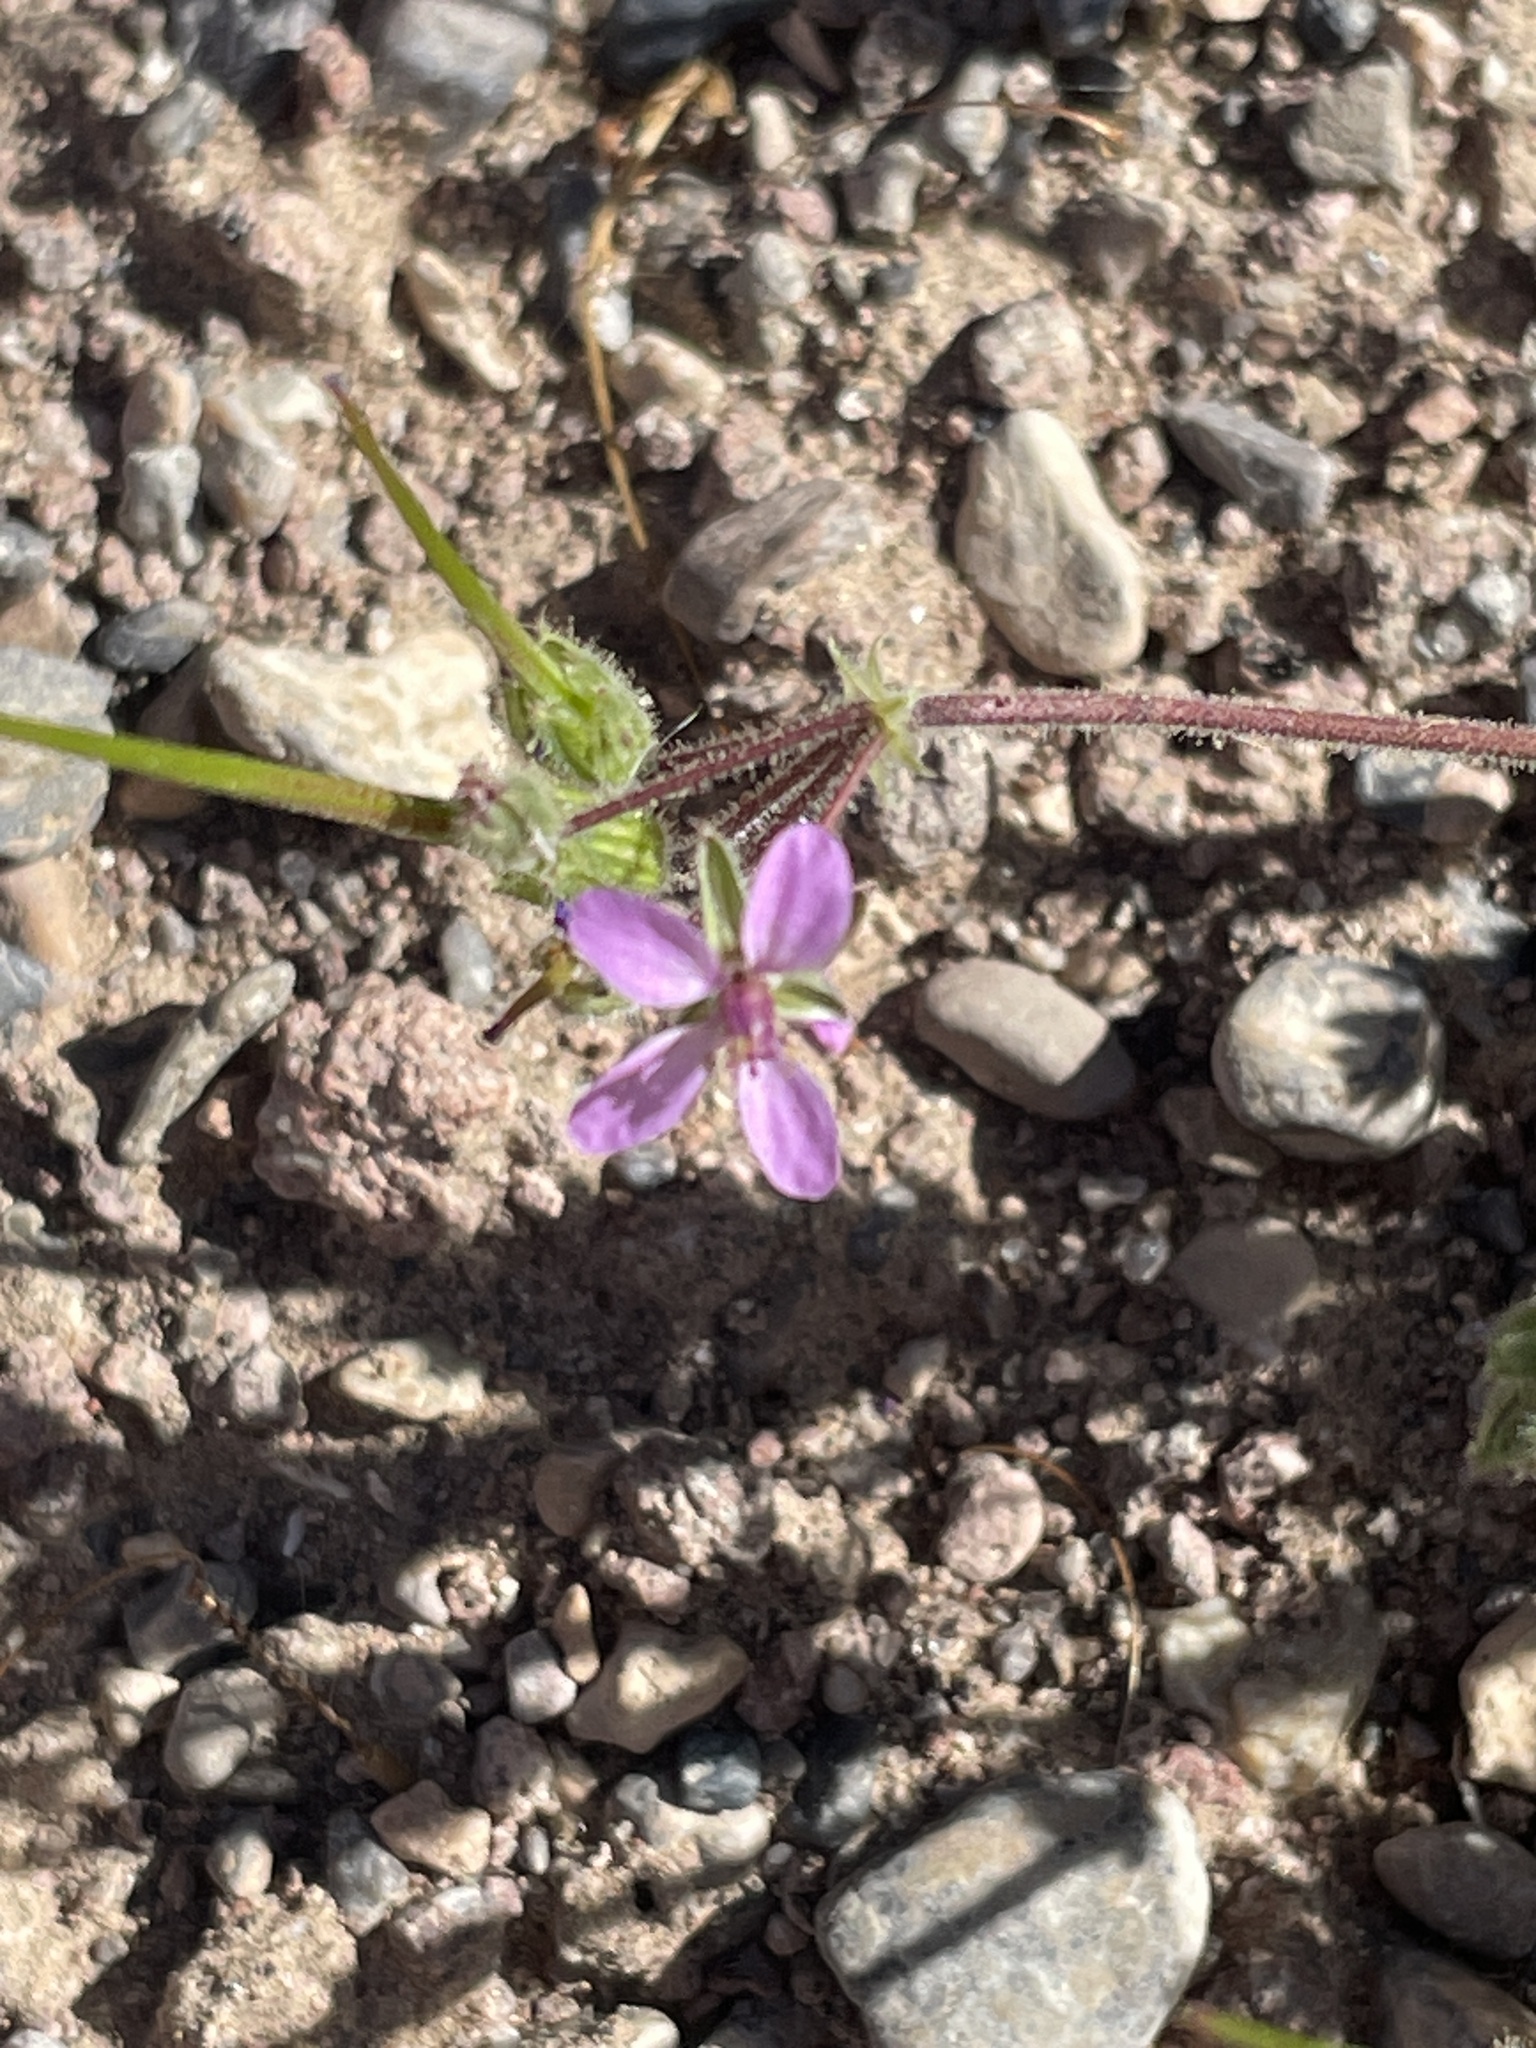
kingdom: Plantae
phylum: Tracheophyta
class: Magnoliopsida
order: Geraniales
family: Geraniaceae
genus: Erodium
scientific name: Erodium cicutarium
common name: Common stork's-bill
